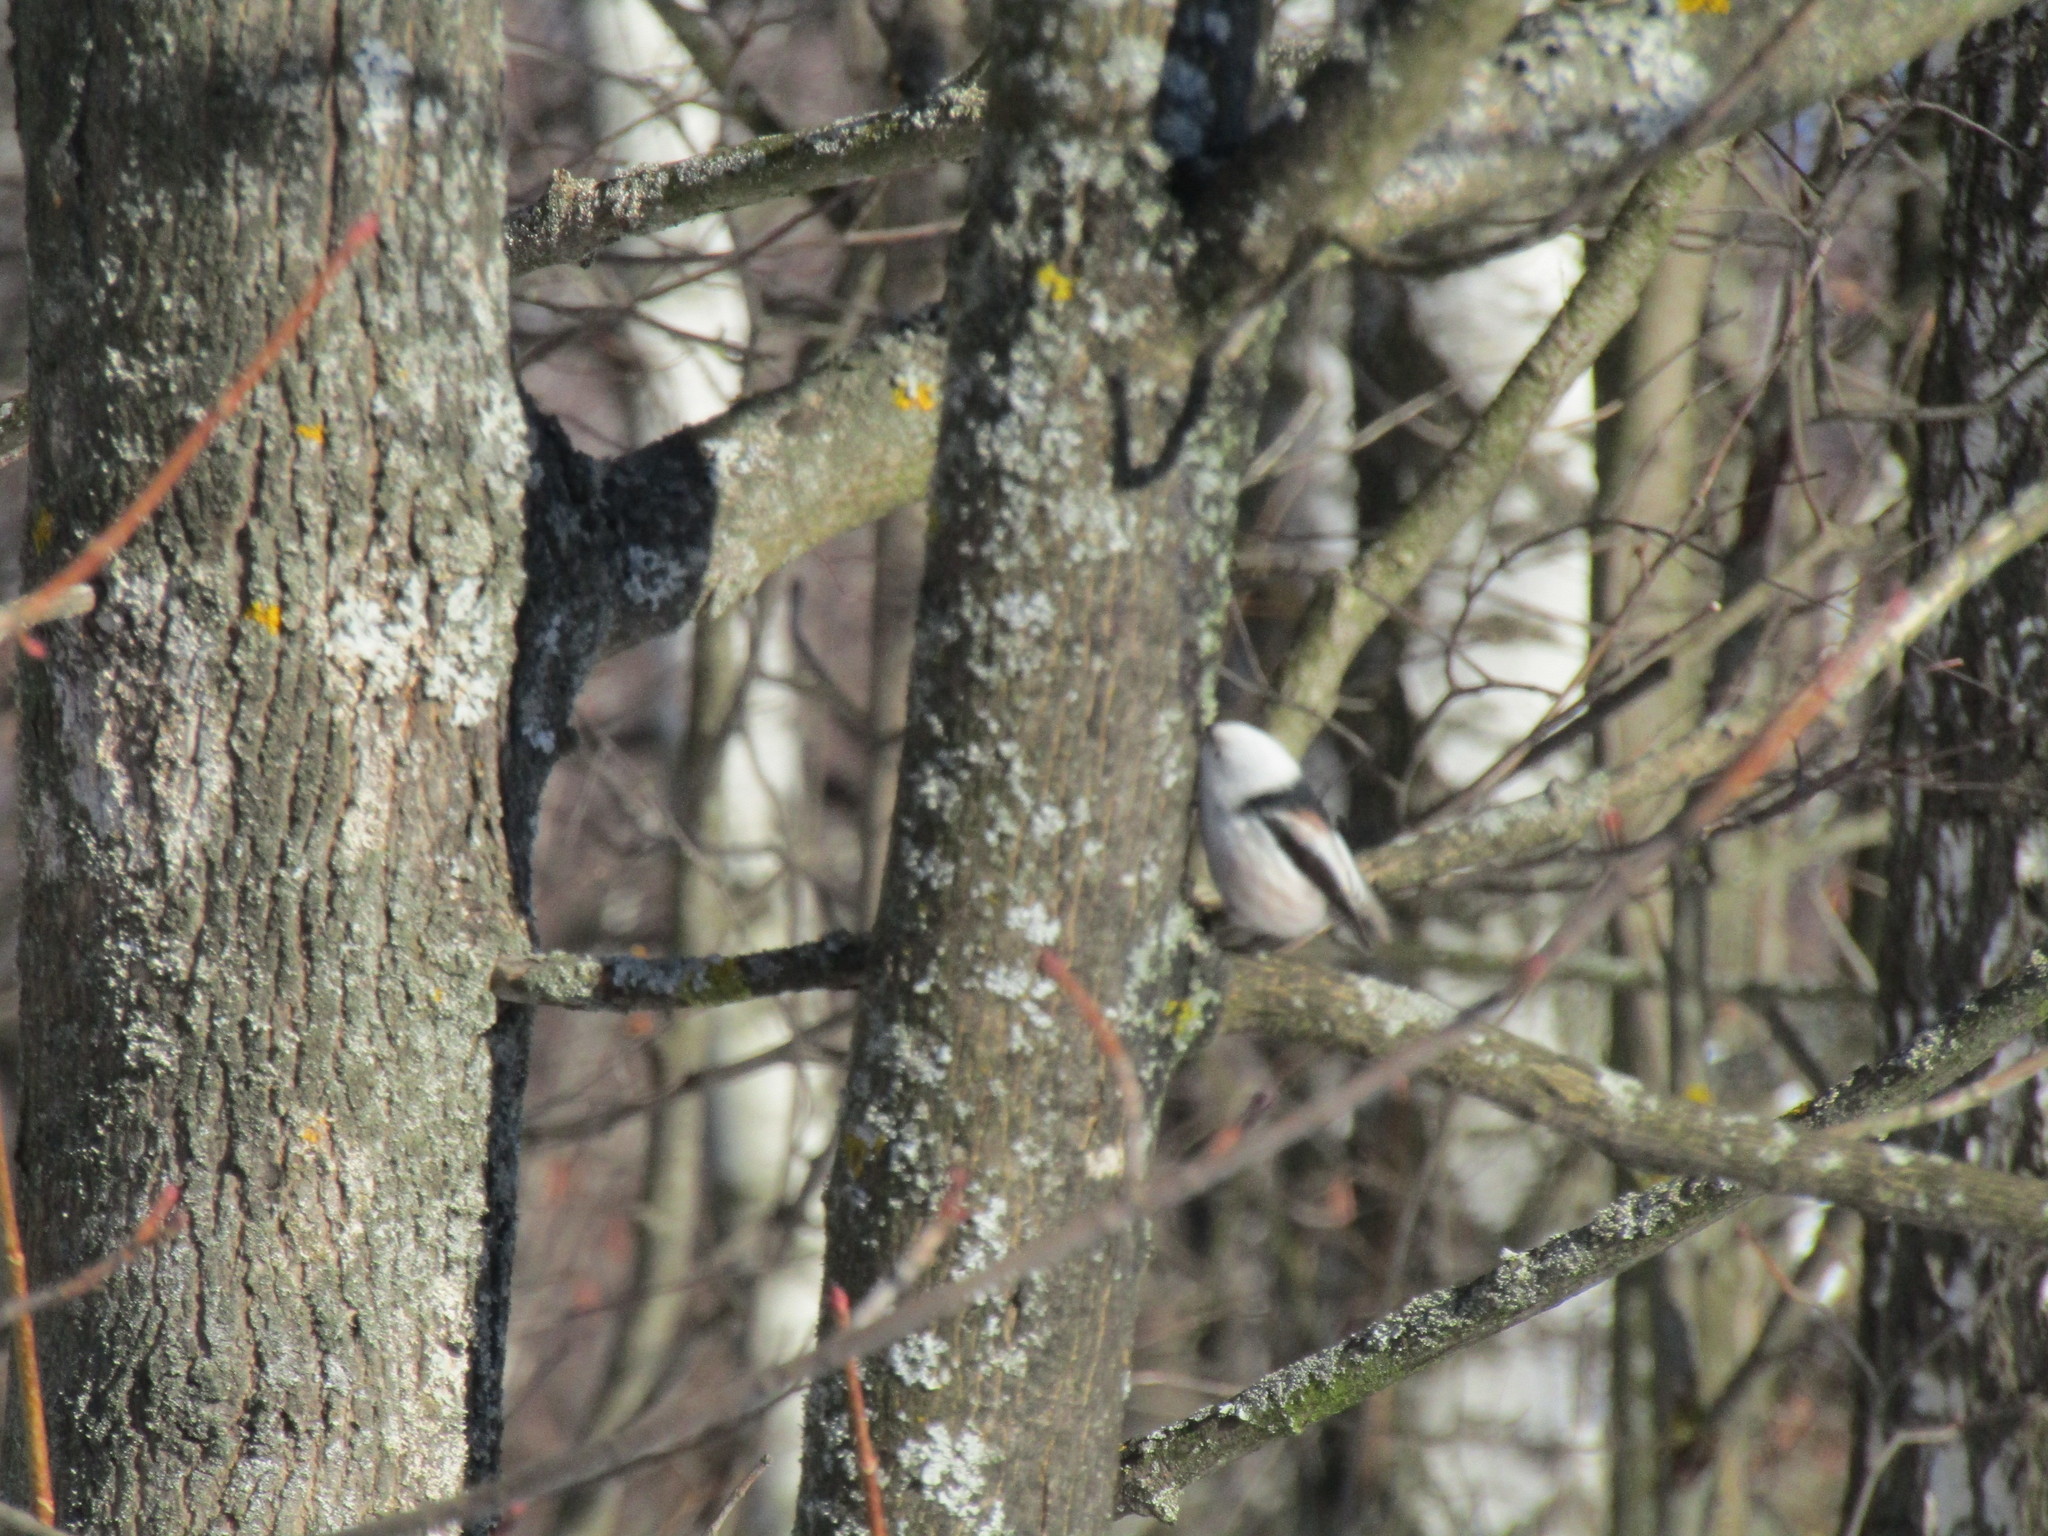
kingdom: Animalia
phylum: Chordata
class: Aves
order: Passeriformes
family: Aegithalidae
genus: Aegithalos
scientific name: Aegithalos caudatus
